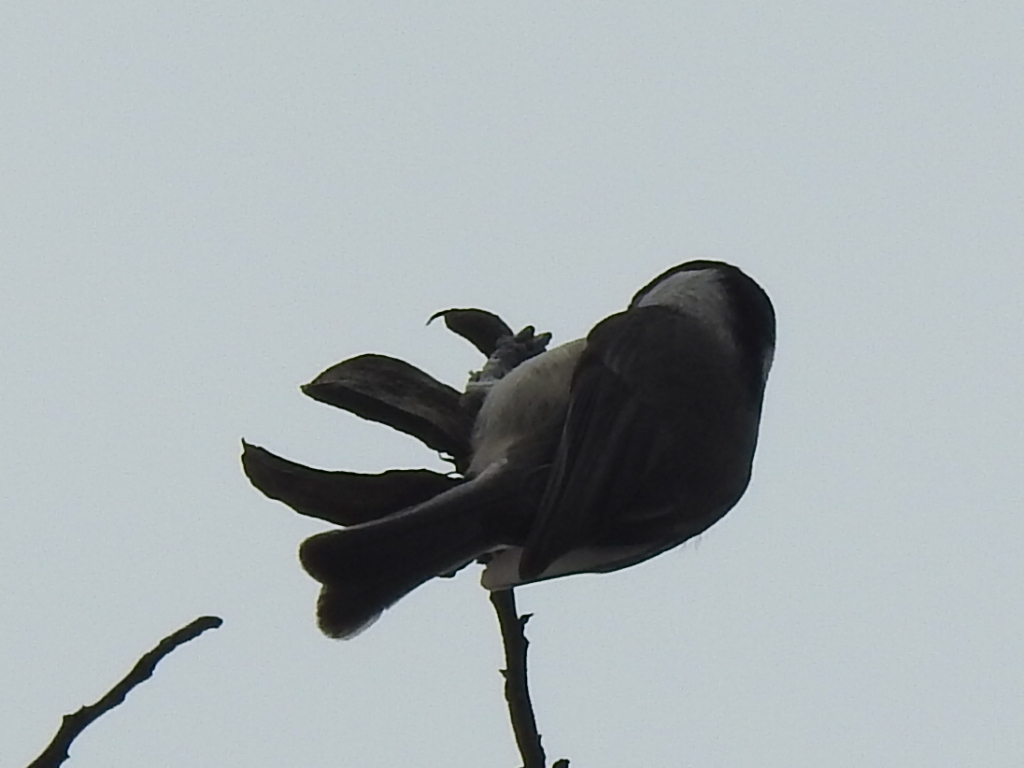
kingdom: Animalia
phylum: Chordata
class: Aves
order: Passeriformes
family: Paridae
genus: Poecile
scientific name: Poecile carolinensis
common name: Carolina chickadee
